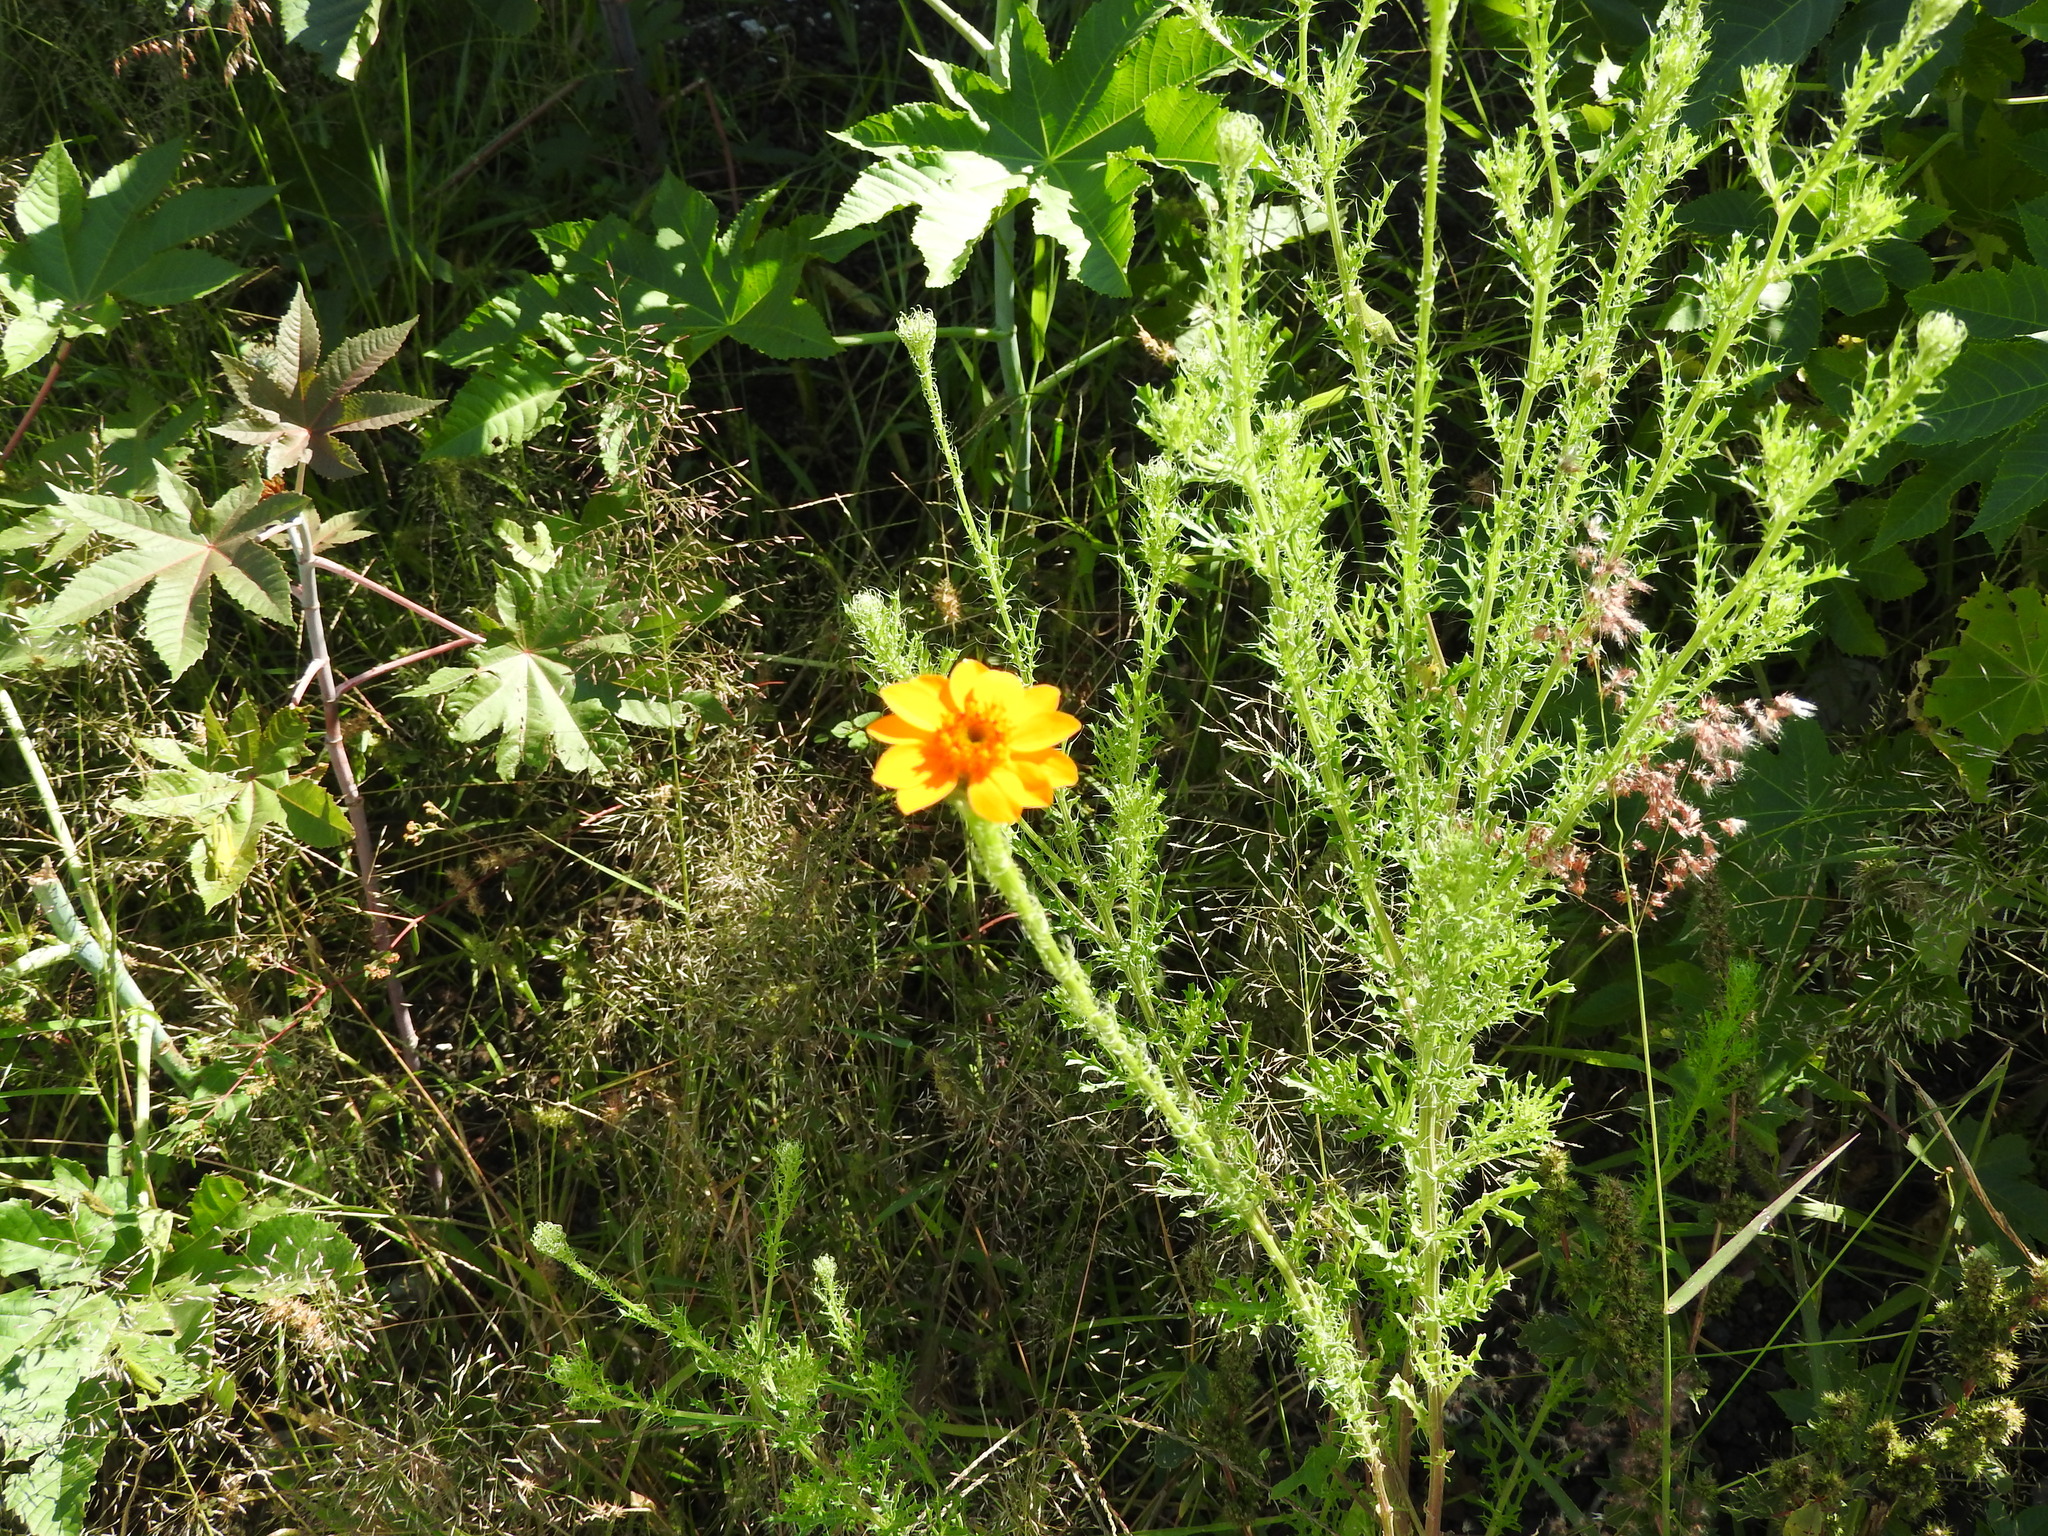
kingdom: Plantae
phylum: Tracheophyta
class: Magnoliopsida
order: Asterales
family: Asteraceae
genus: Adenophyllum
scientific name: Adenophyllum cancellatum
